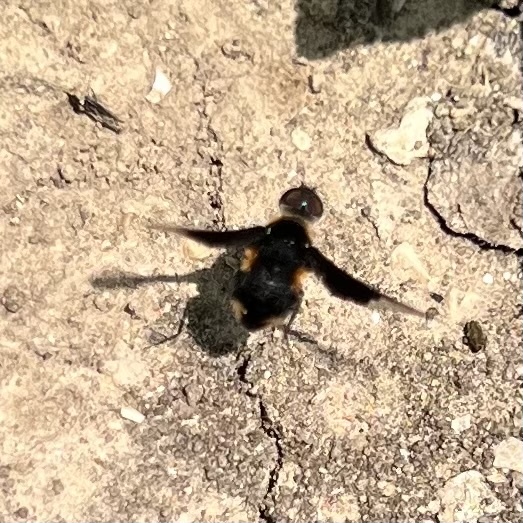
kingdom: Animalia
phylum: Arthropoda
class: Insecta
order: Diptera
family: Bombyliidae
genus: Ins
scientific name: Ins celeris
